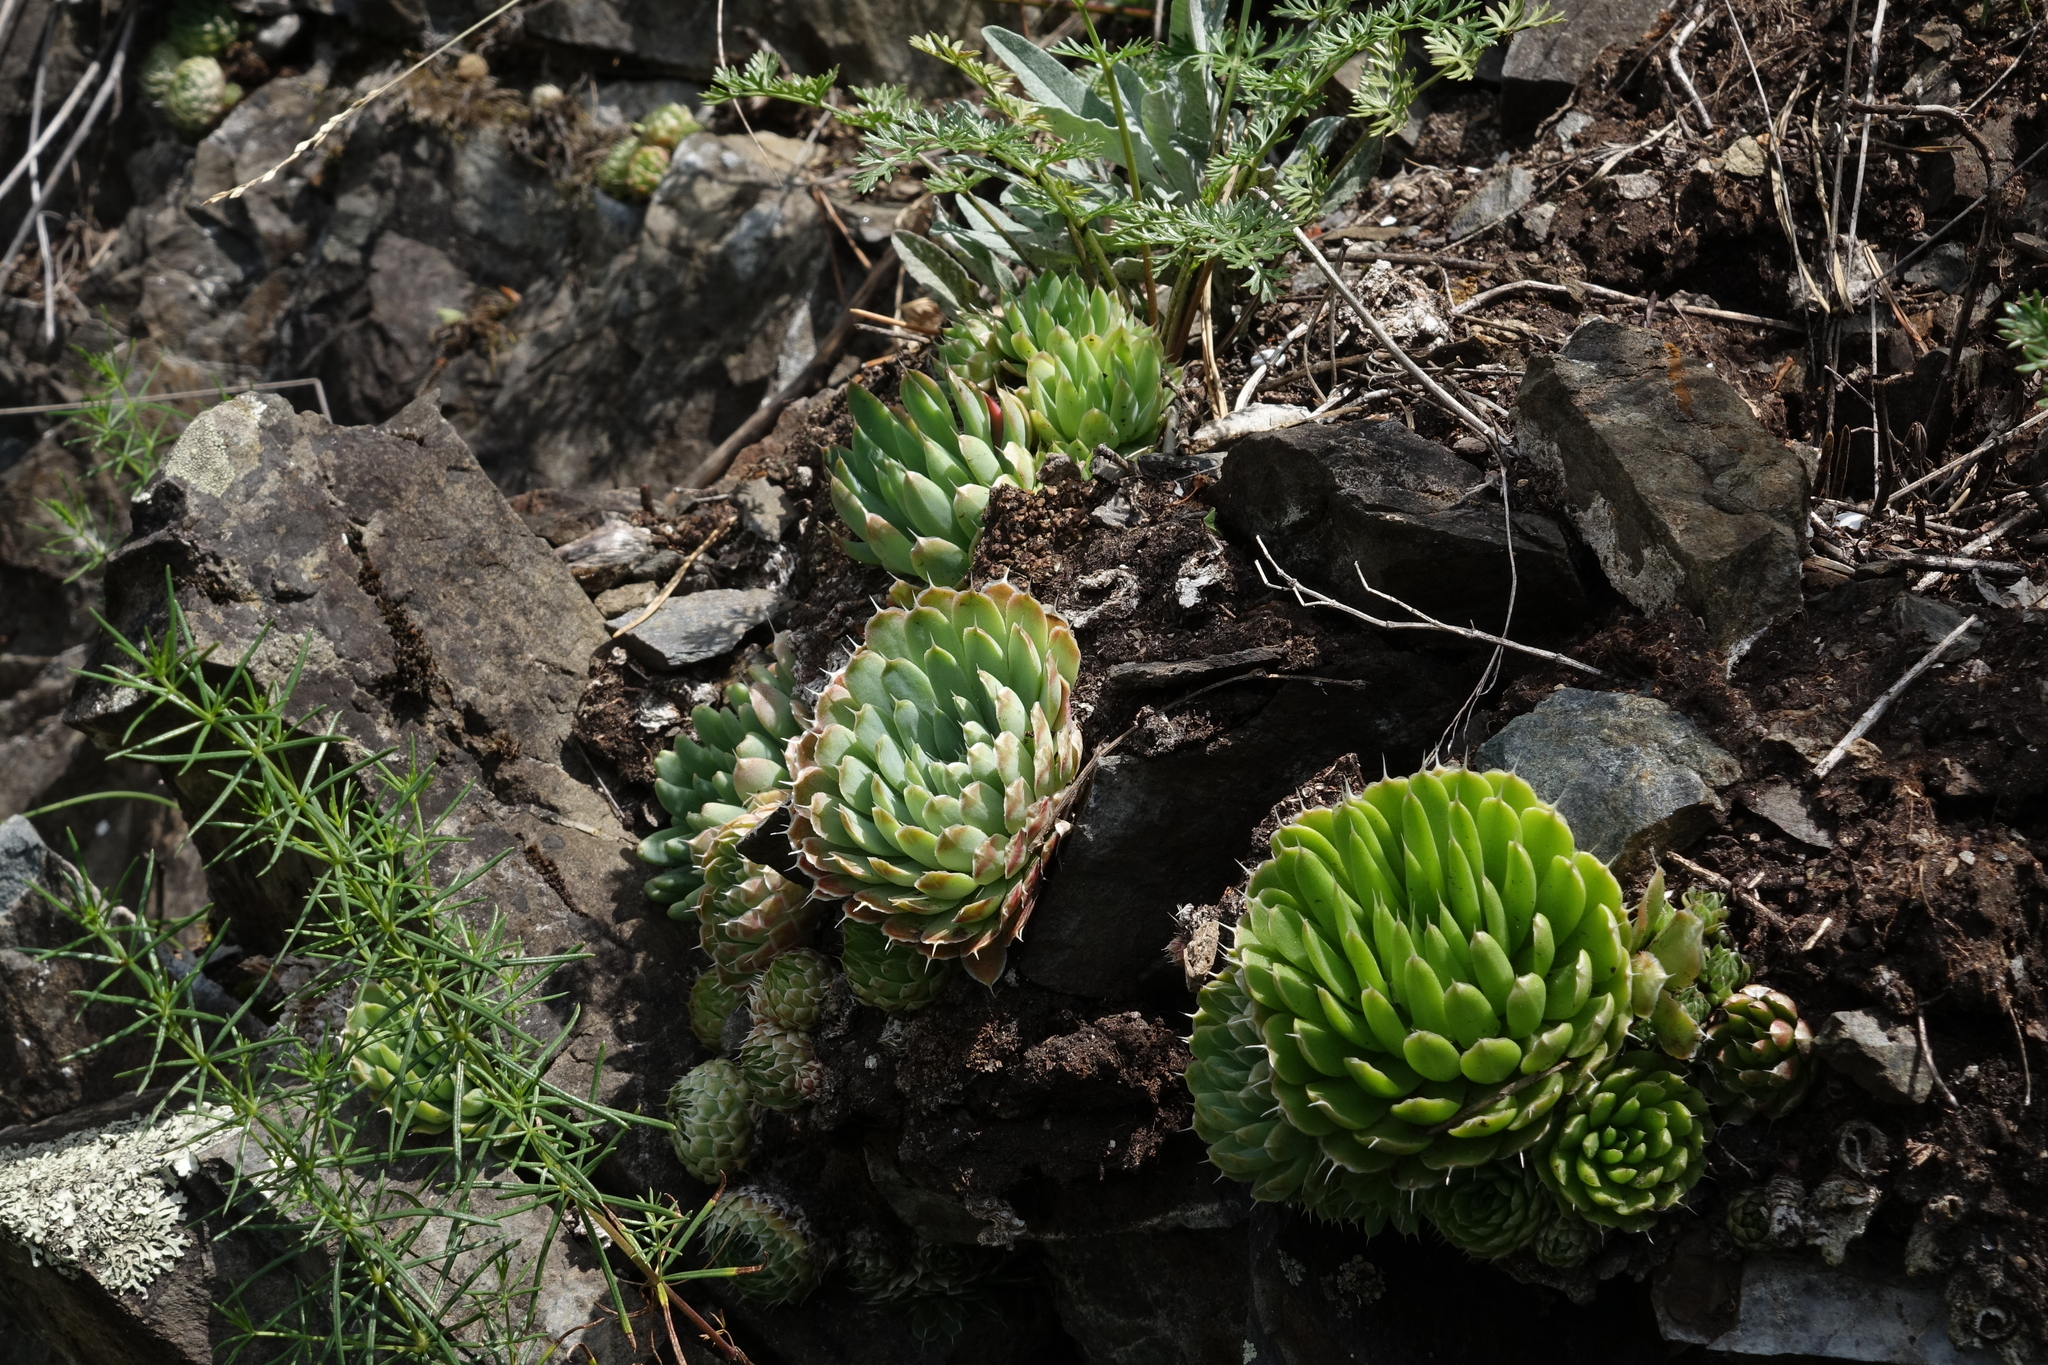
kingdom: Plantae
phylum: Tracheophyta
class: Magnoliopsida
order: Saxifragales
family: Crassulaceae
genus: Orostachys
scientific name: Orostachys spinosa
